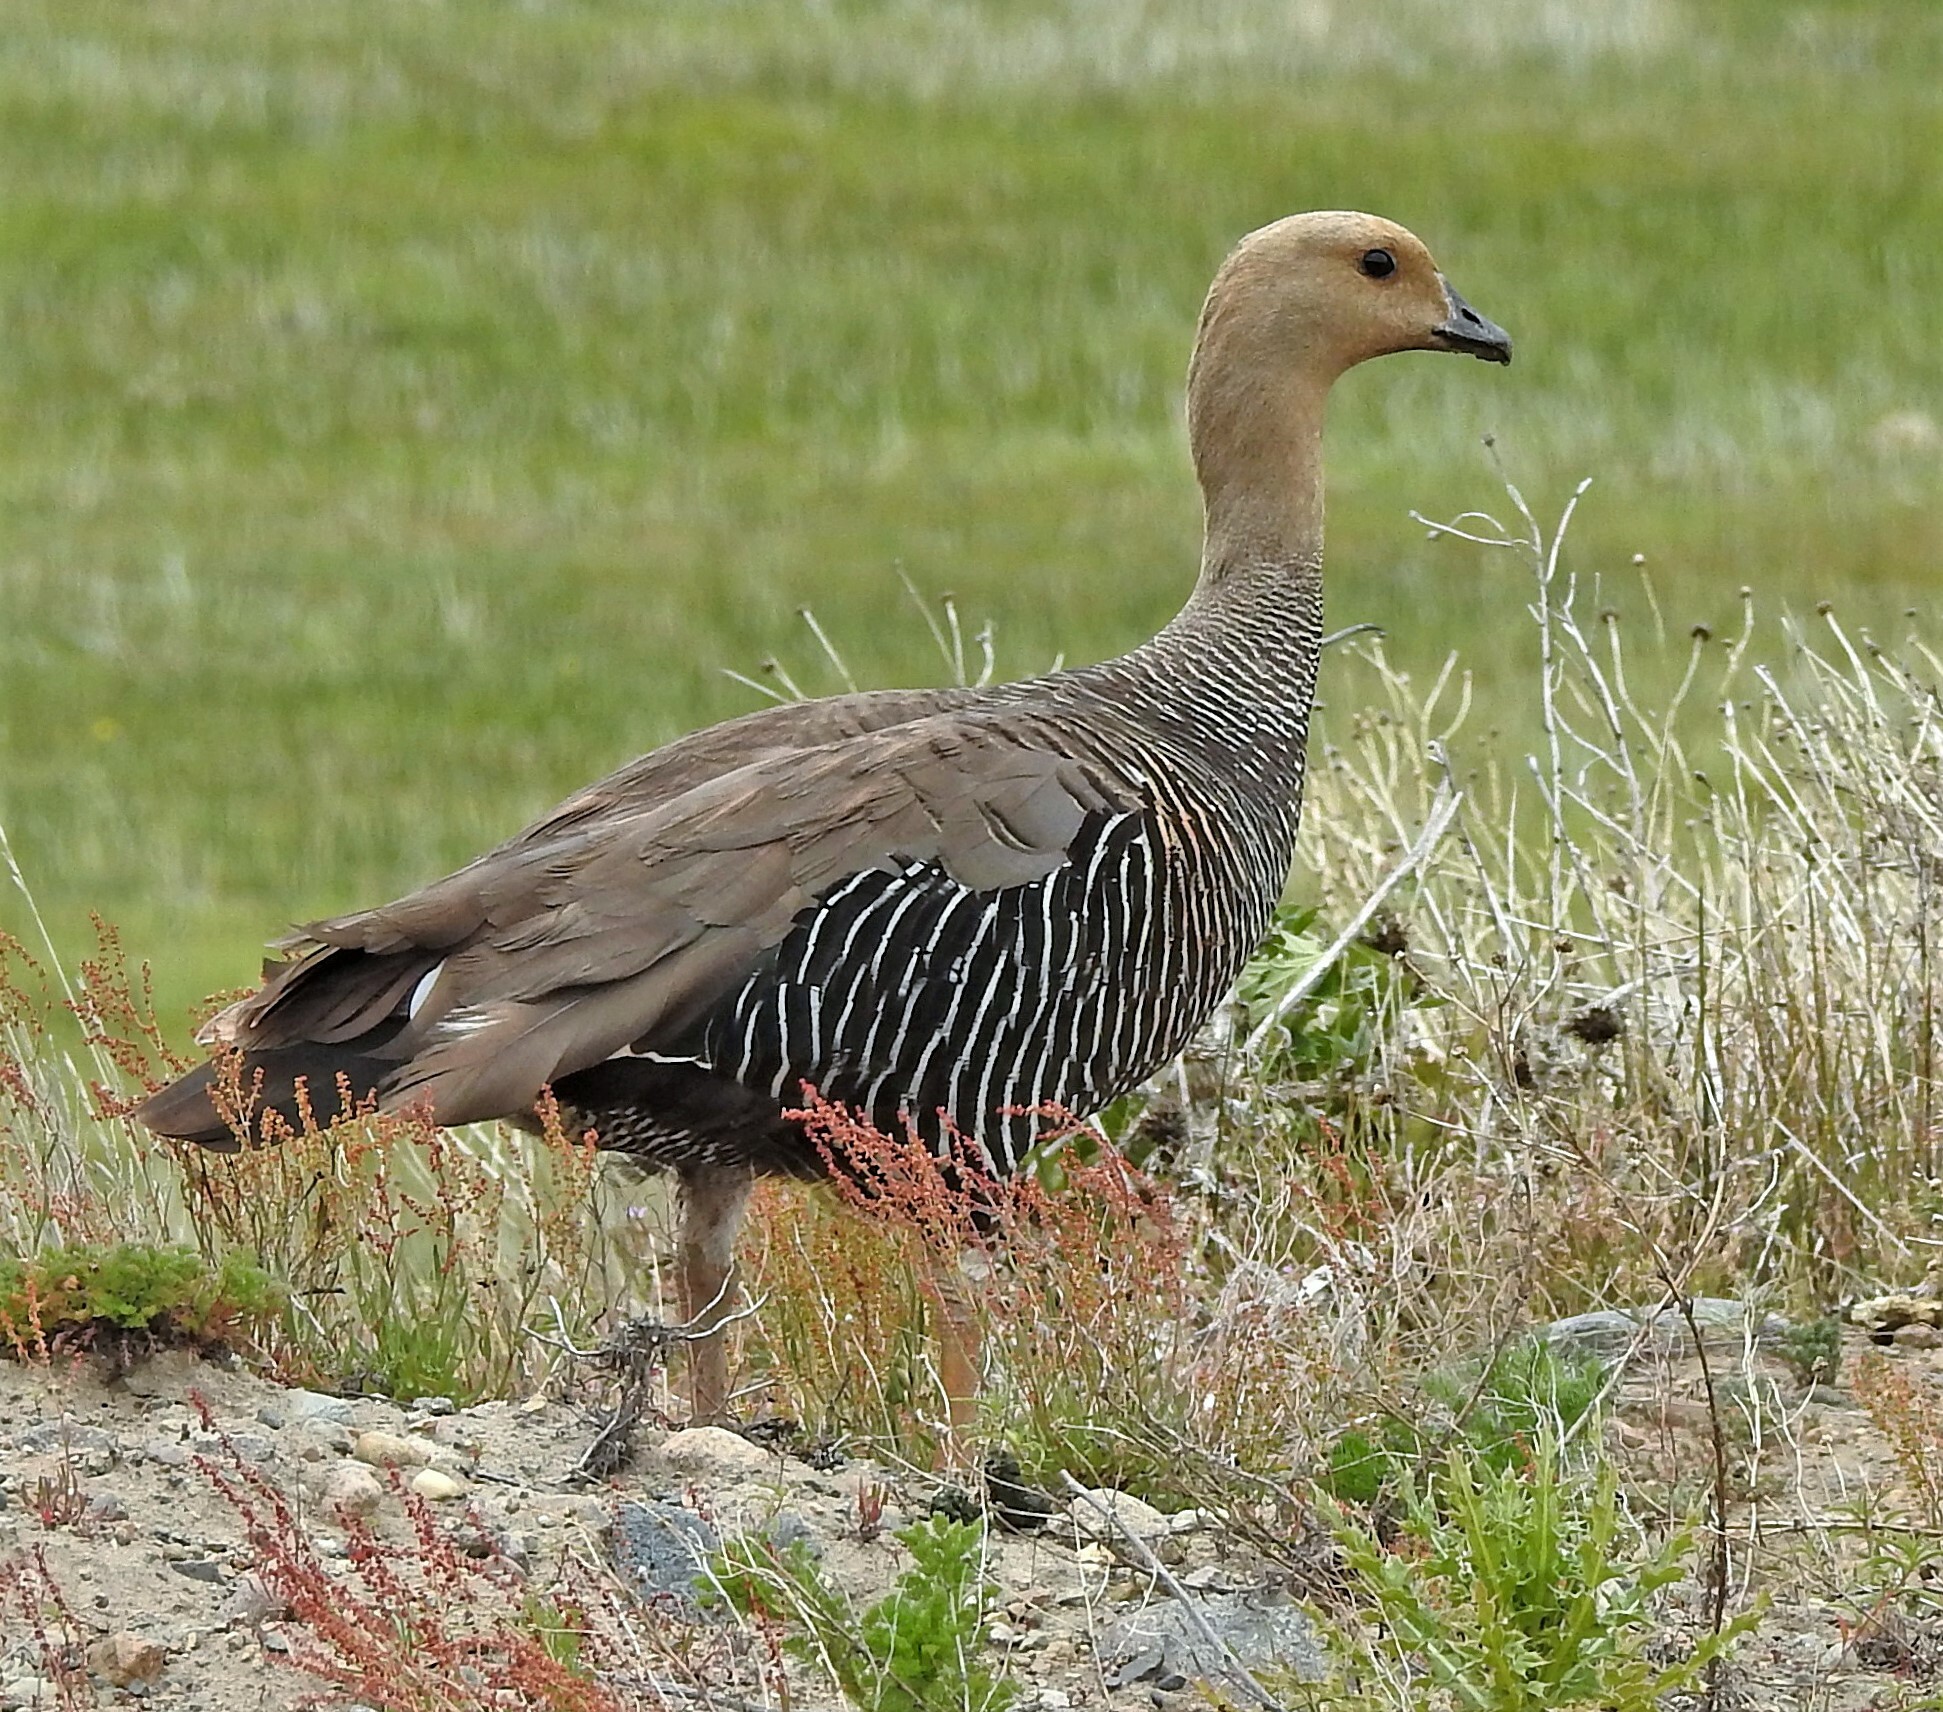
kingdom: Animalia
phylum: Chordata
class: Aves
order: Anseriformes
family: Anatidae
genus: Chloephaga
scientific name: Chloephaga picta
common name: Upland goose
